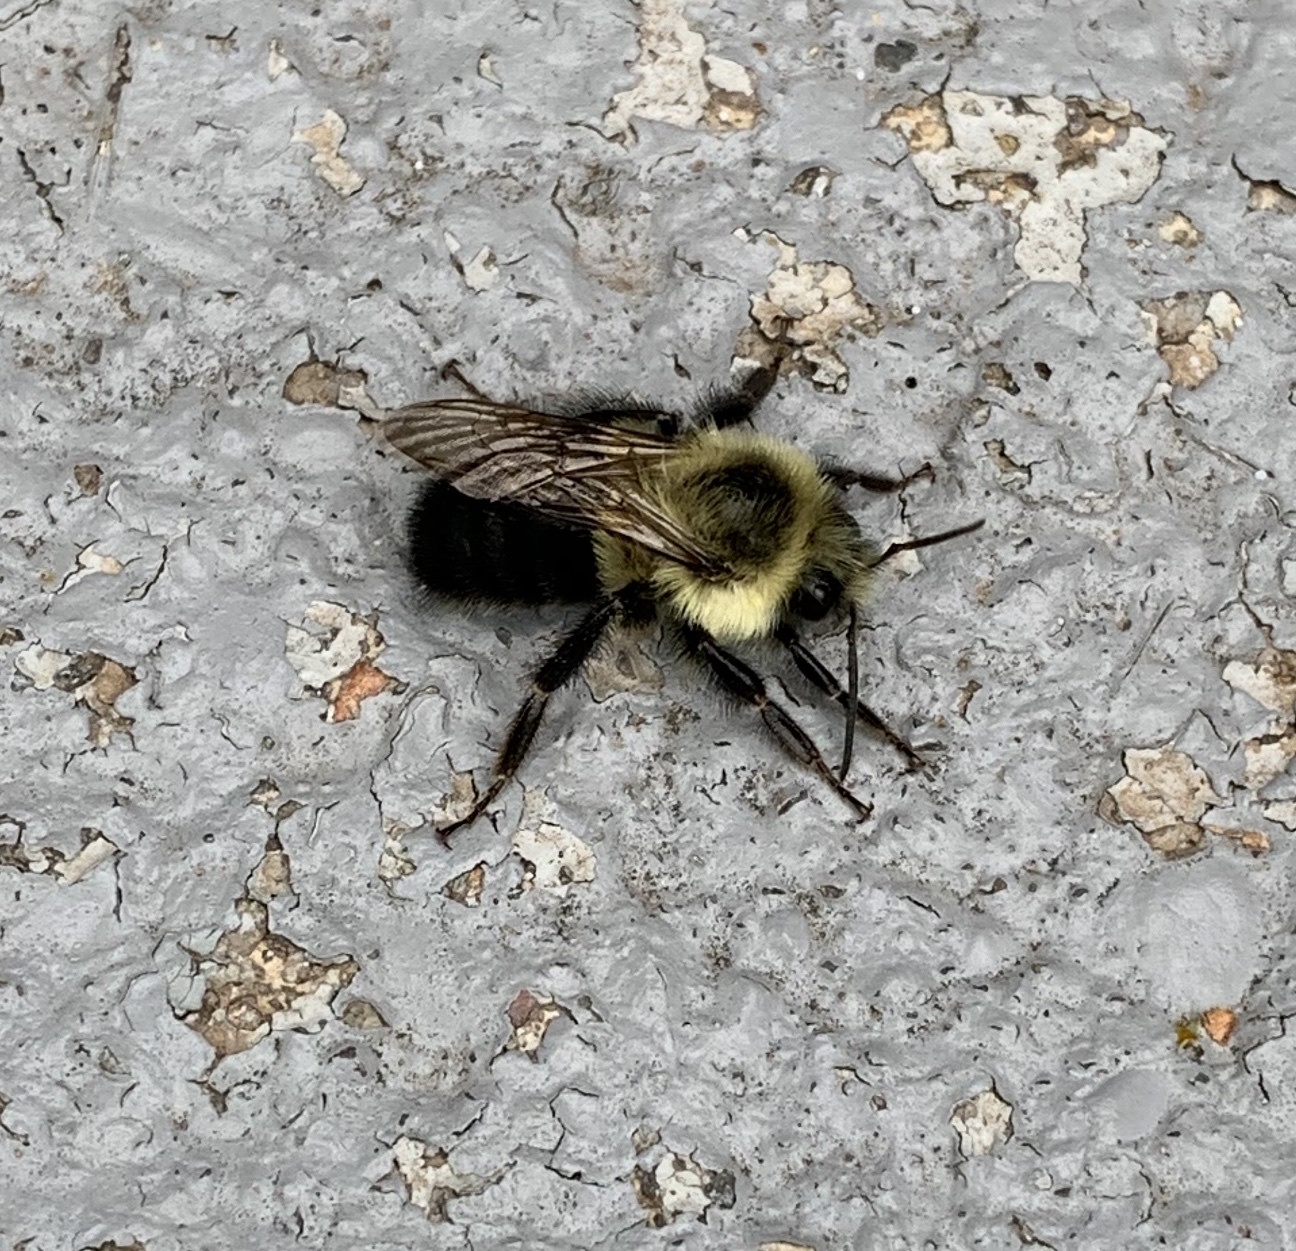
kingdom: Animalia
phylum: Arthropoda
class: Insecta
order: Hymenoptera
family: Apidae
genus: Bombus
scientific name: Bombus impatiens
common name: Common eastern bumble bee
